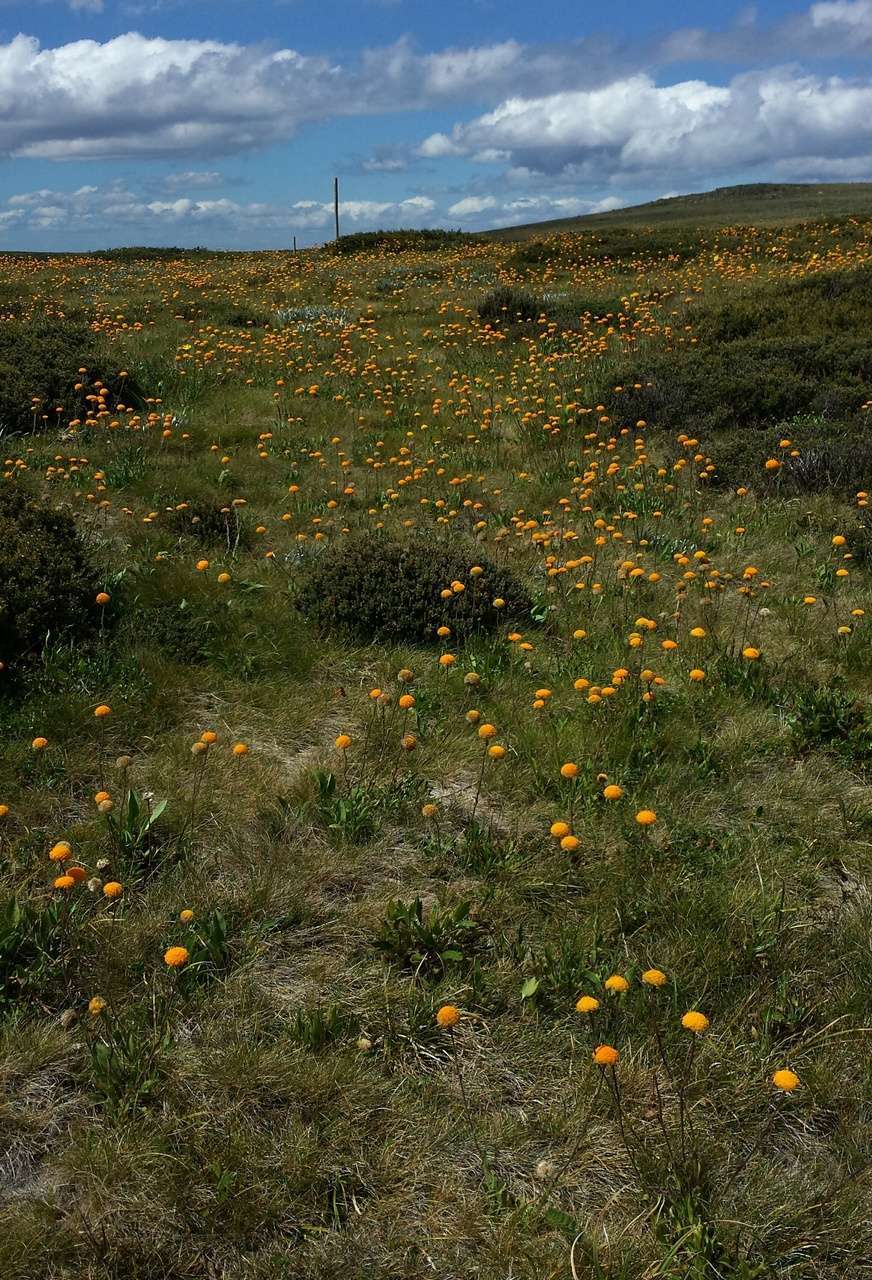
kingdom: Plantae
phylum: Tracheophyta
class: Magnoliopsida
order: Asterales
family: Asteraceae
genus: Craspedia
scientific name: Craspedia aurantia
